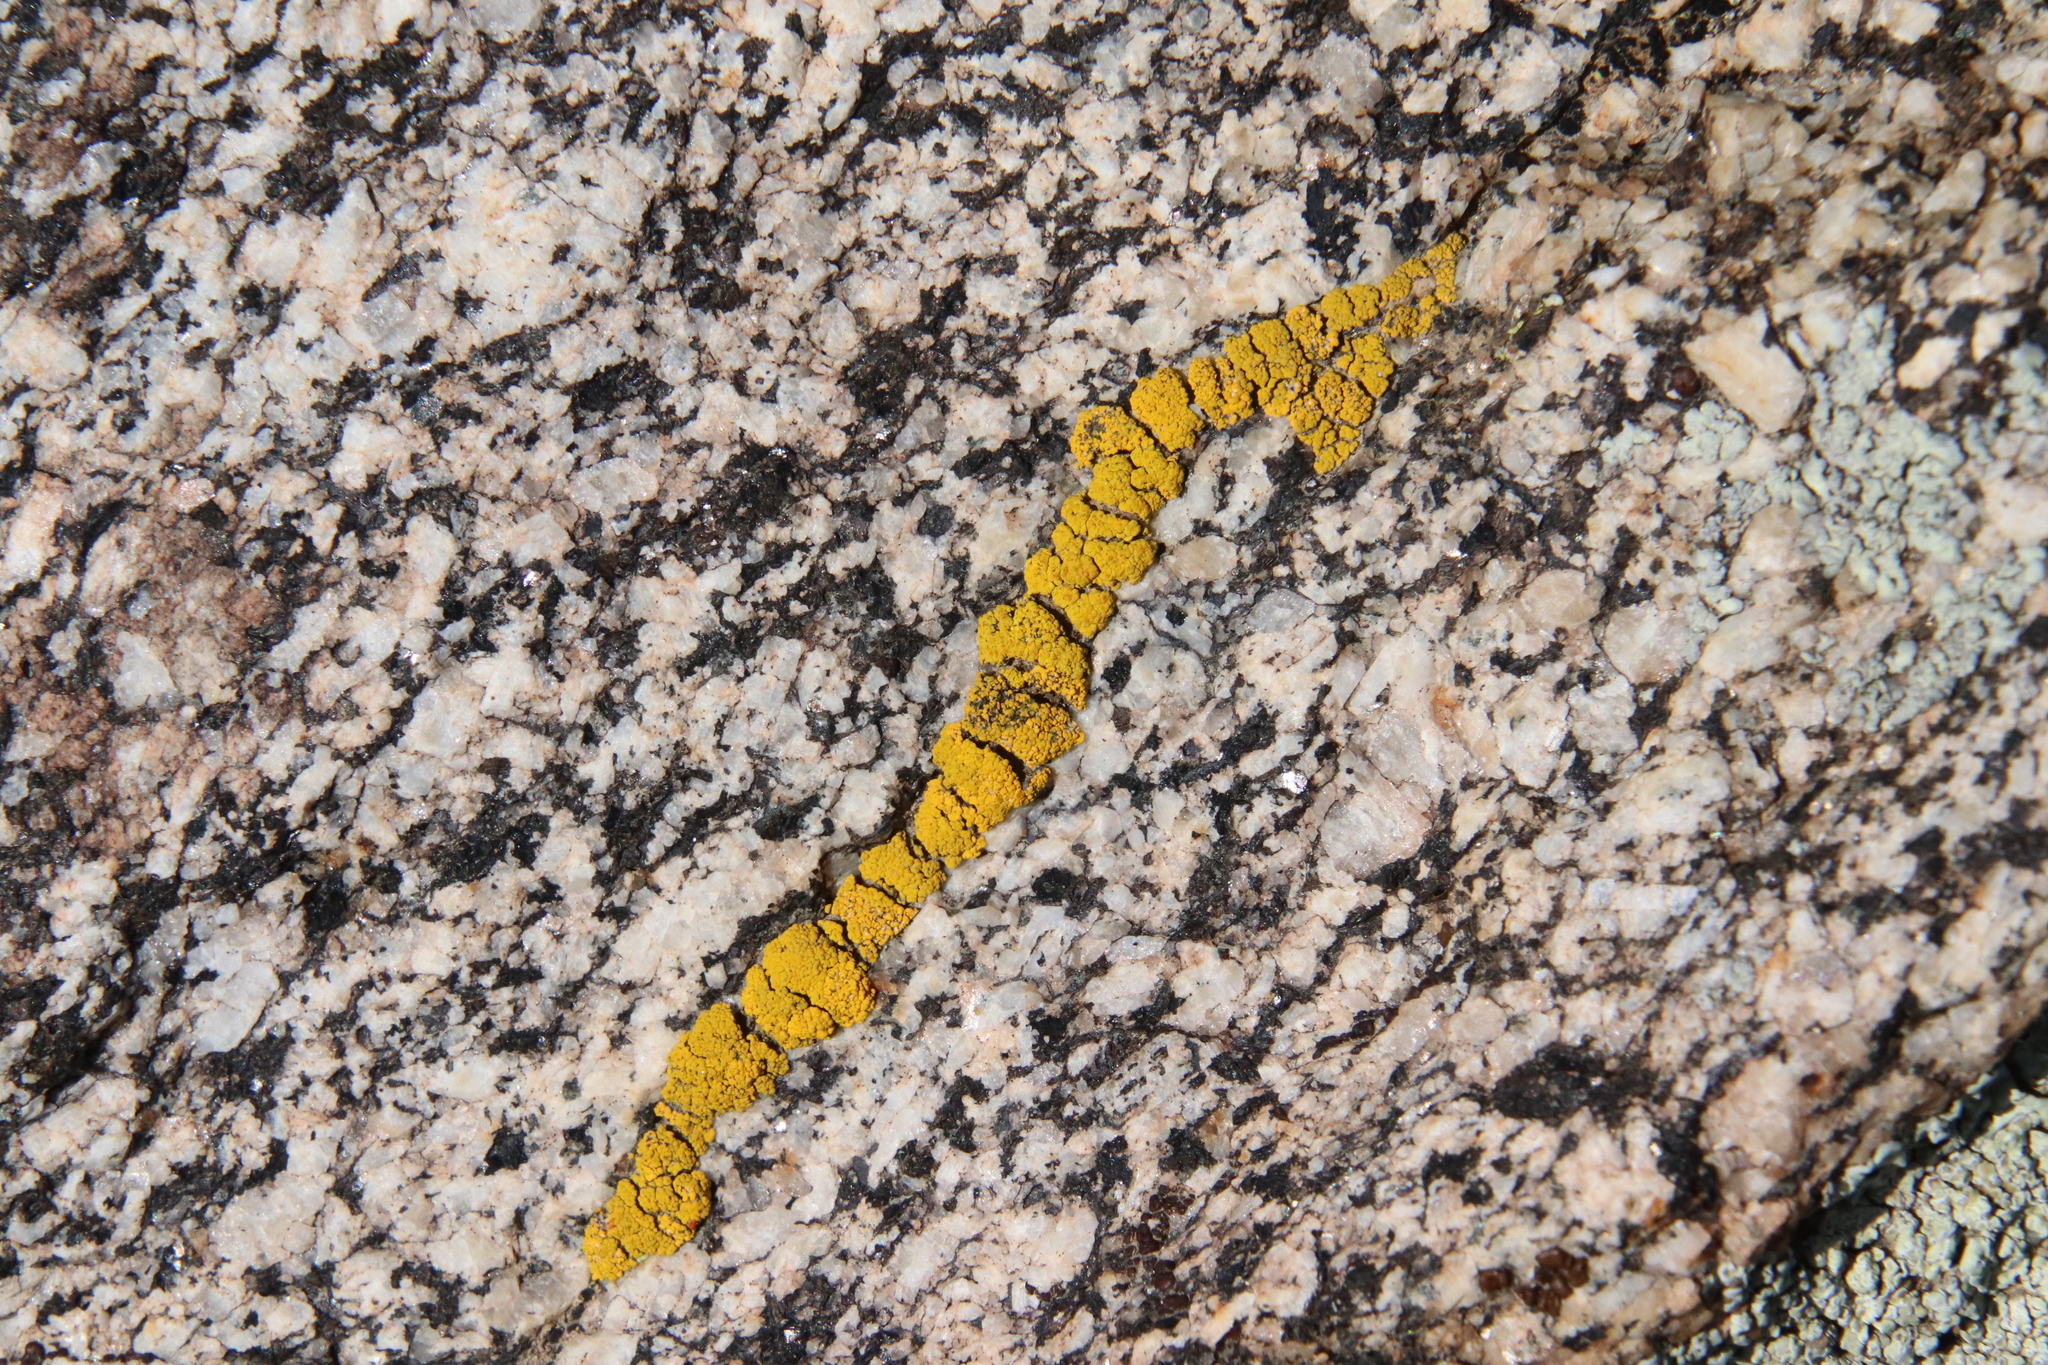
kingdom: Fungi
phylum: Ascomycota
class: Lecanoromycetes
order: Acarosporales
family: Acarosporaceae
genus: Acarospora
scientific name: Acarospora socialis
